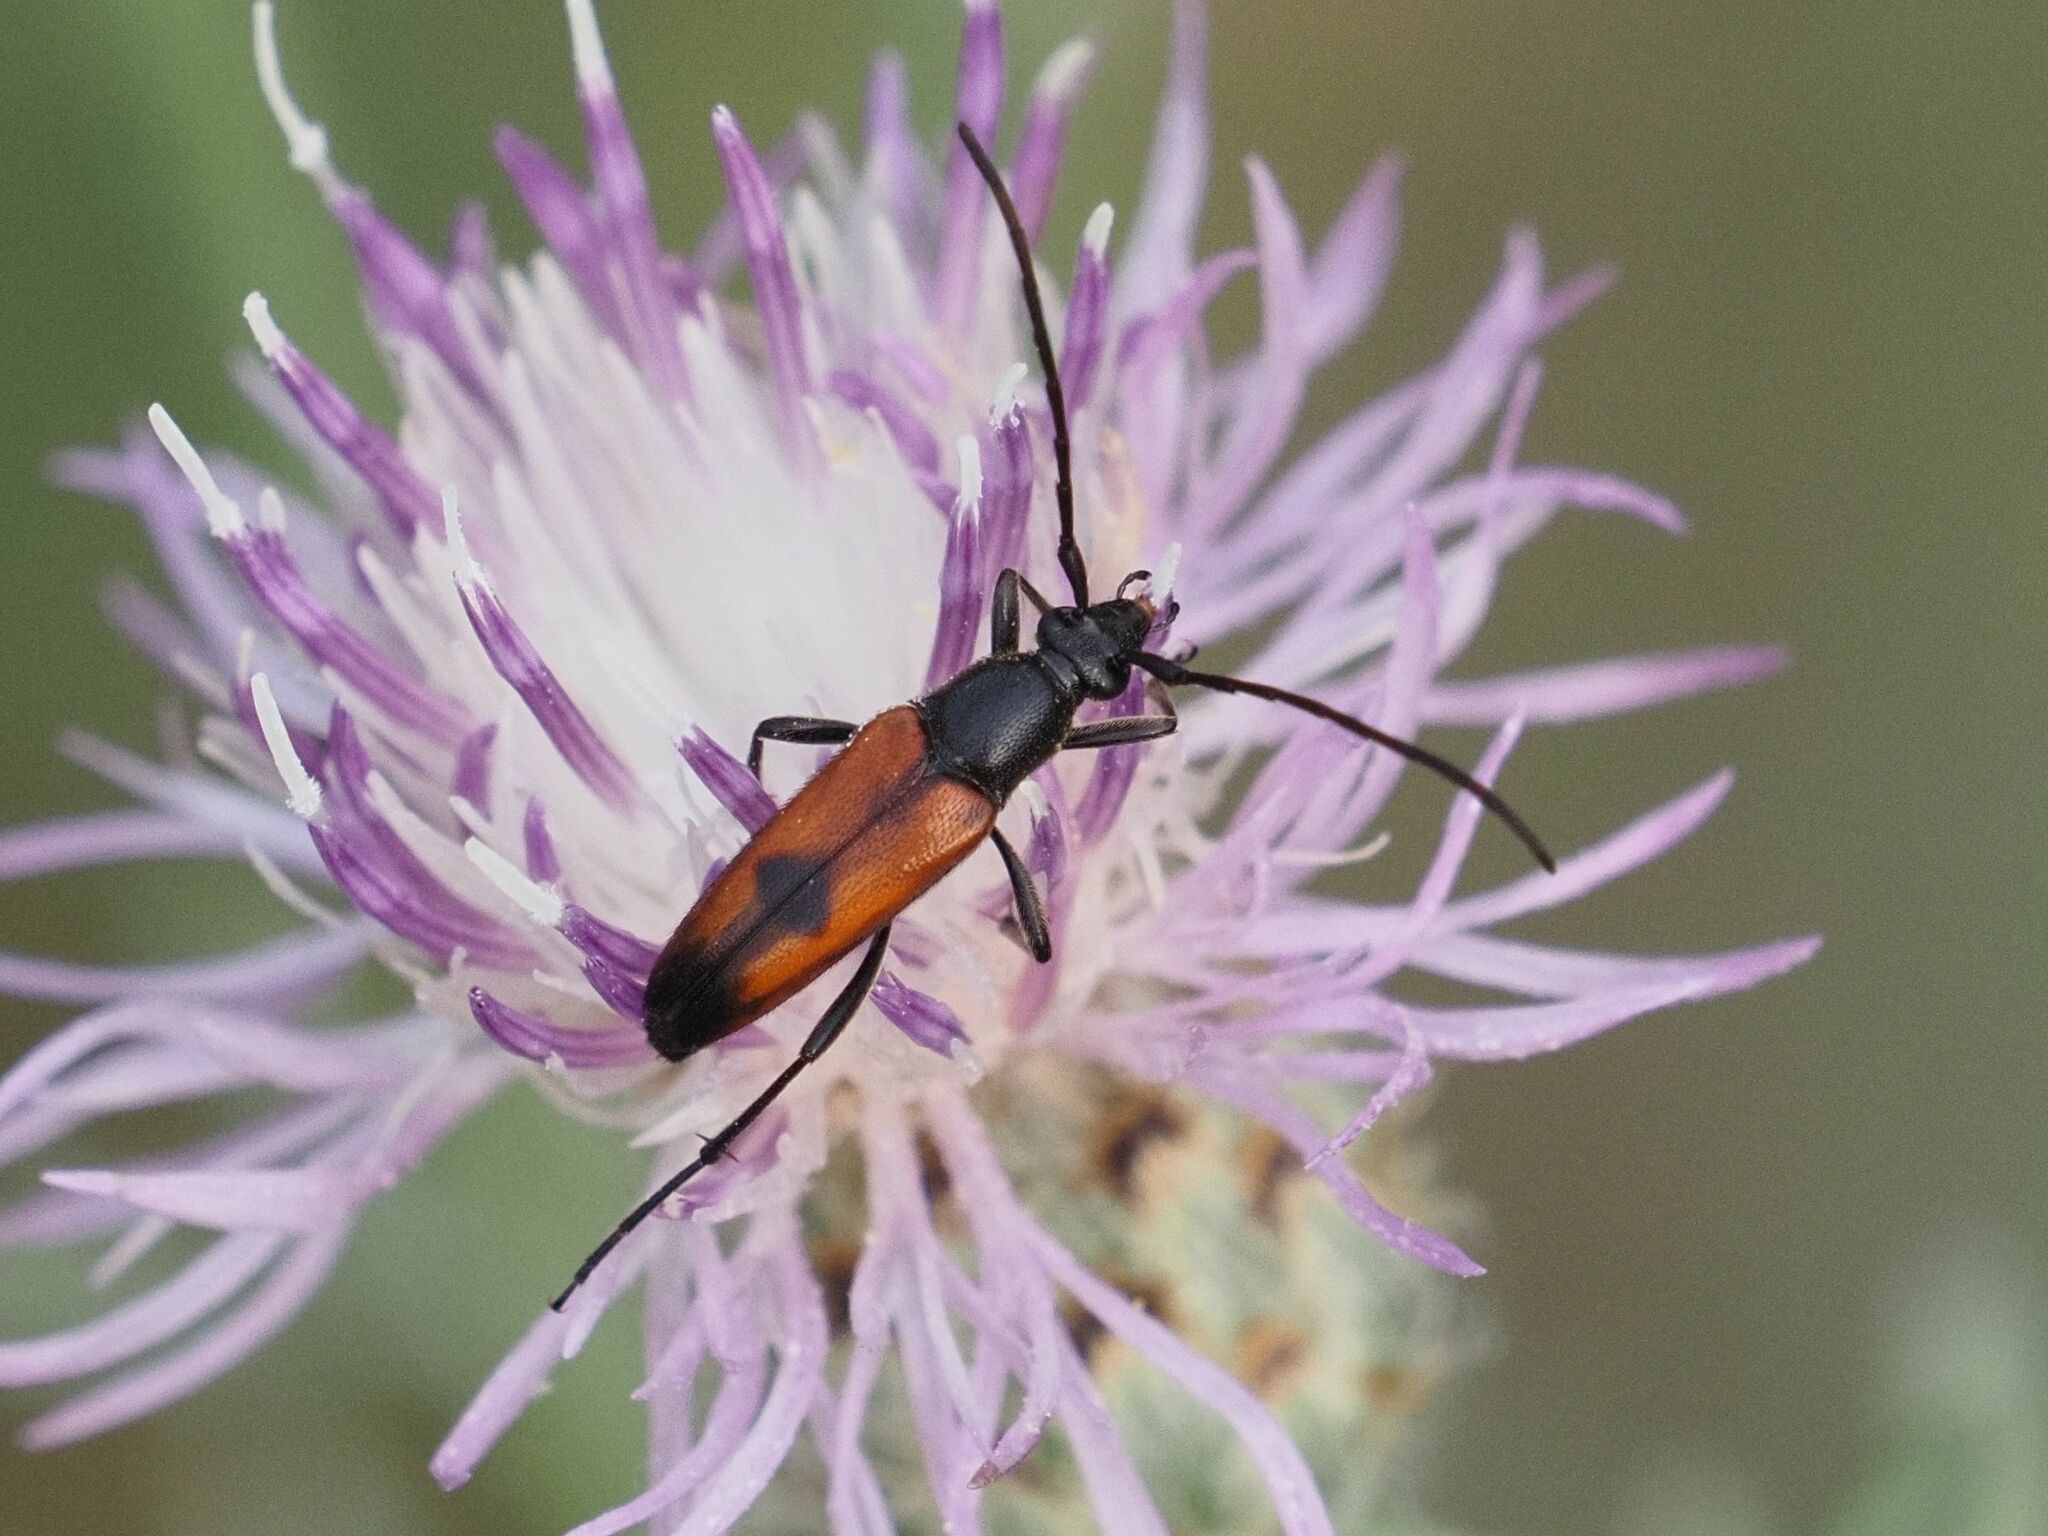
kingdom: Animalia
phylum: Arthropoda
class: Insecta
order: Coleoptera
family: Cerambycidae
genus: Stenurella
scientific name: Stenurella bifasciata
